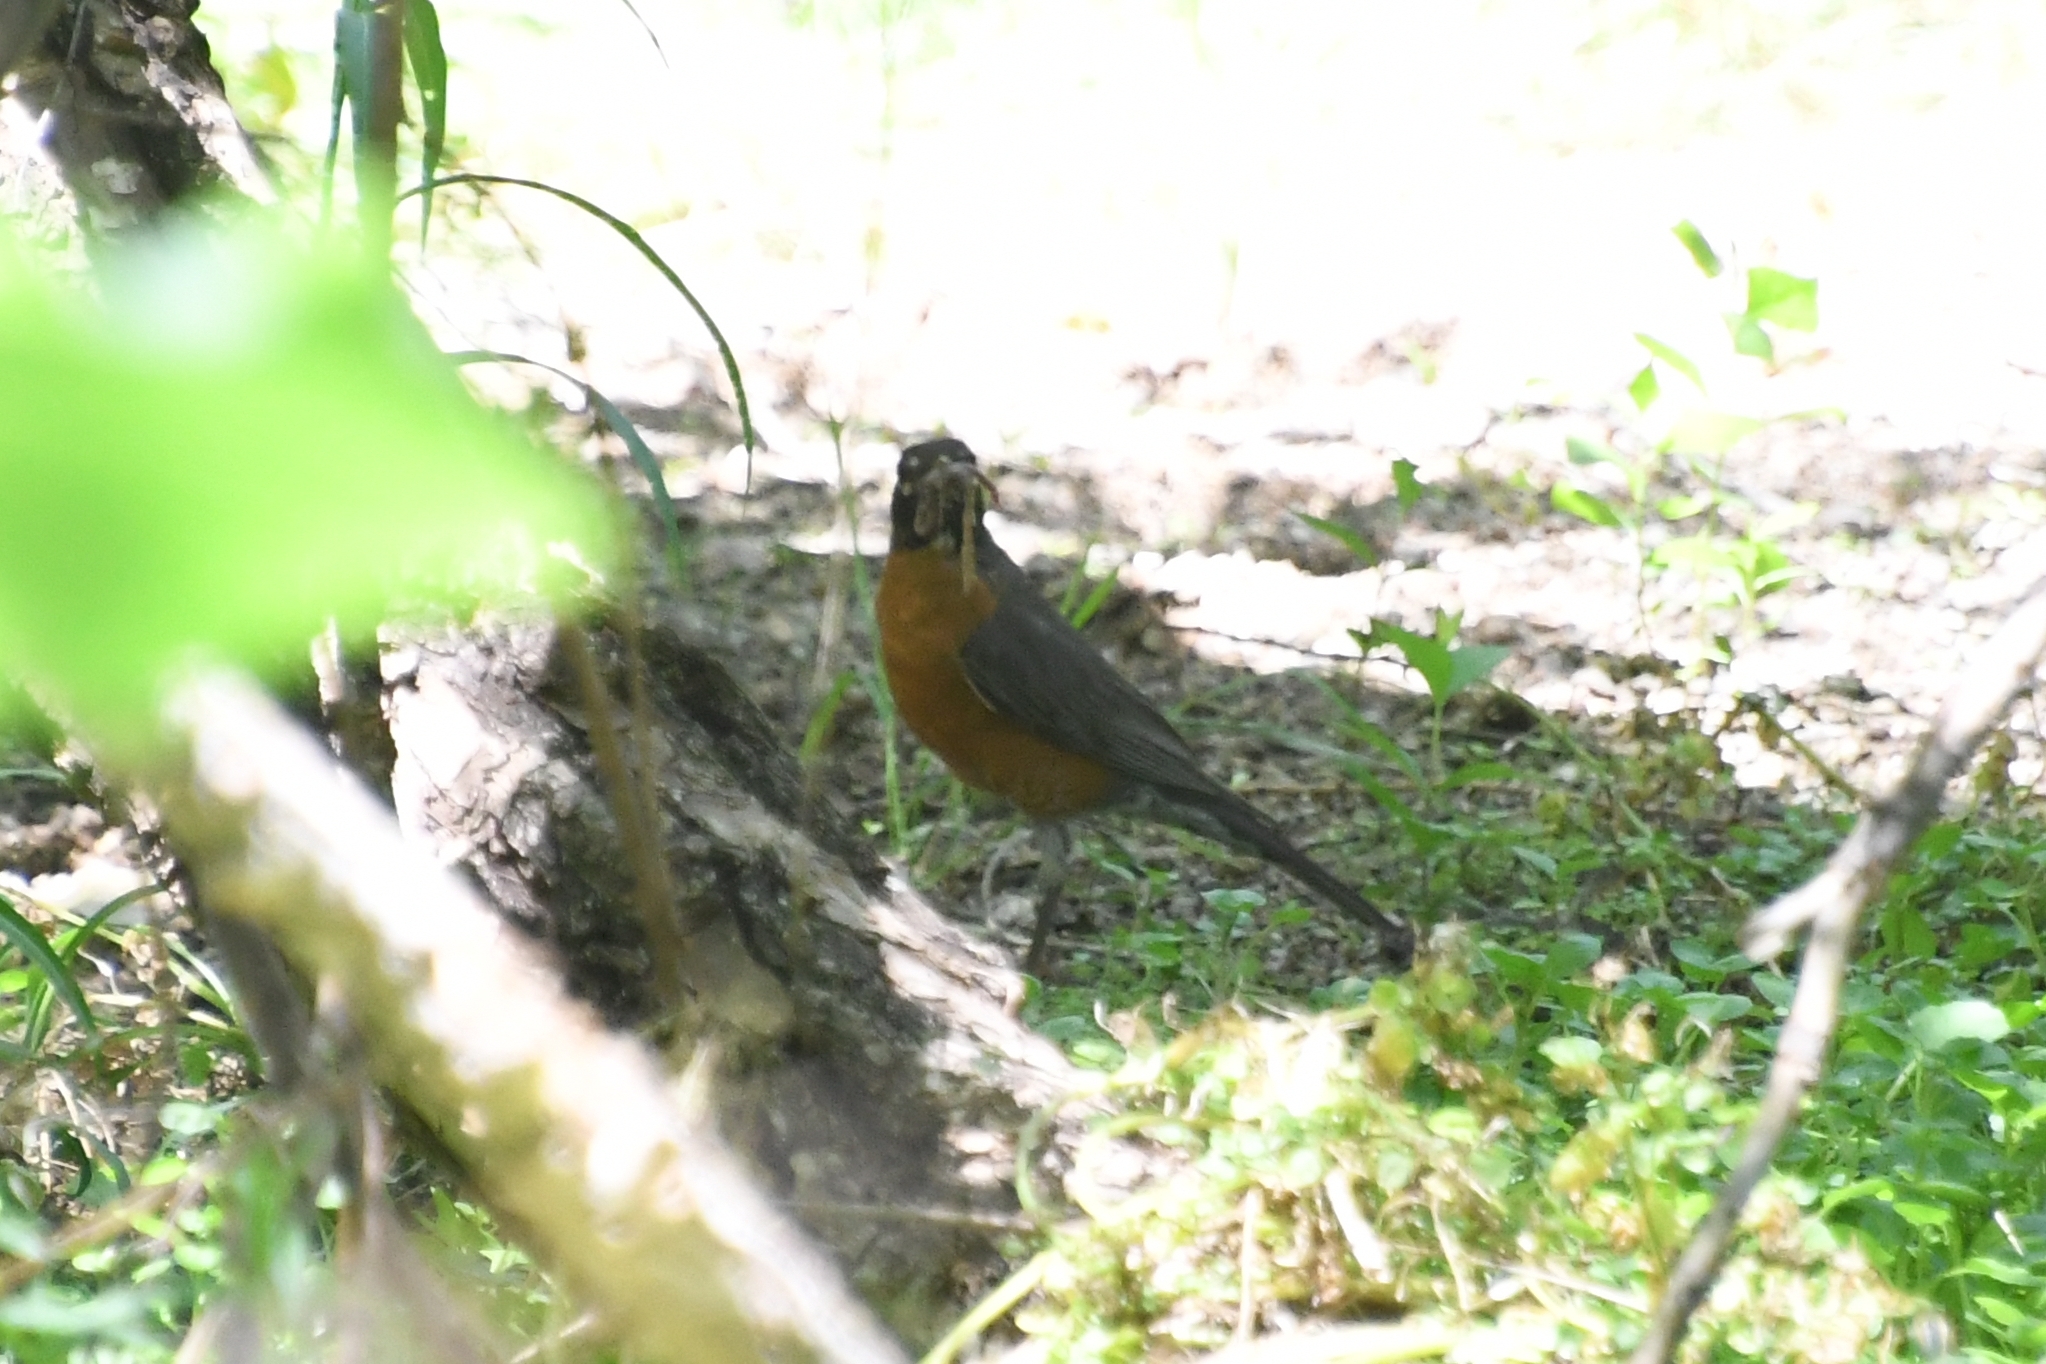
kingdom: Animalia
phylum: Chordata
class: Aves
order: Passeriformes
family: Turdidae
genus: Turdus
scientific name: Turdus migratorius
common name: American robin
